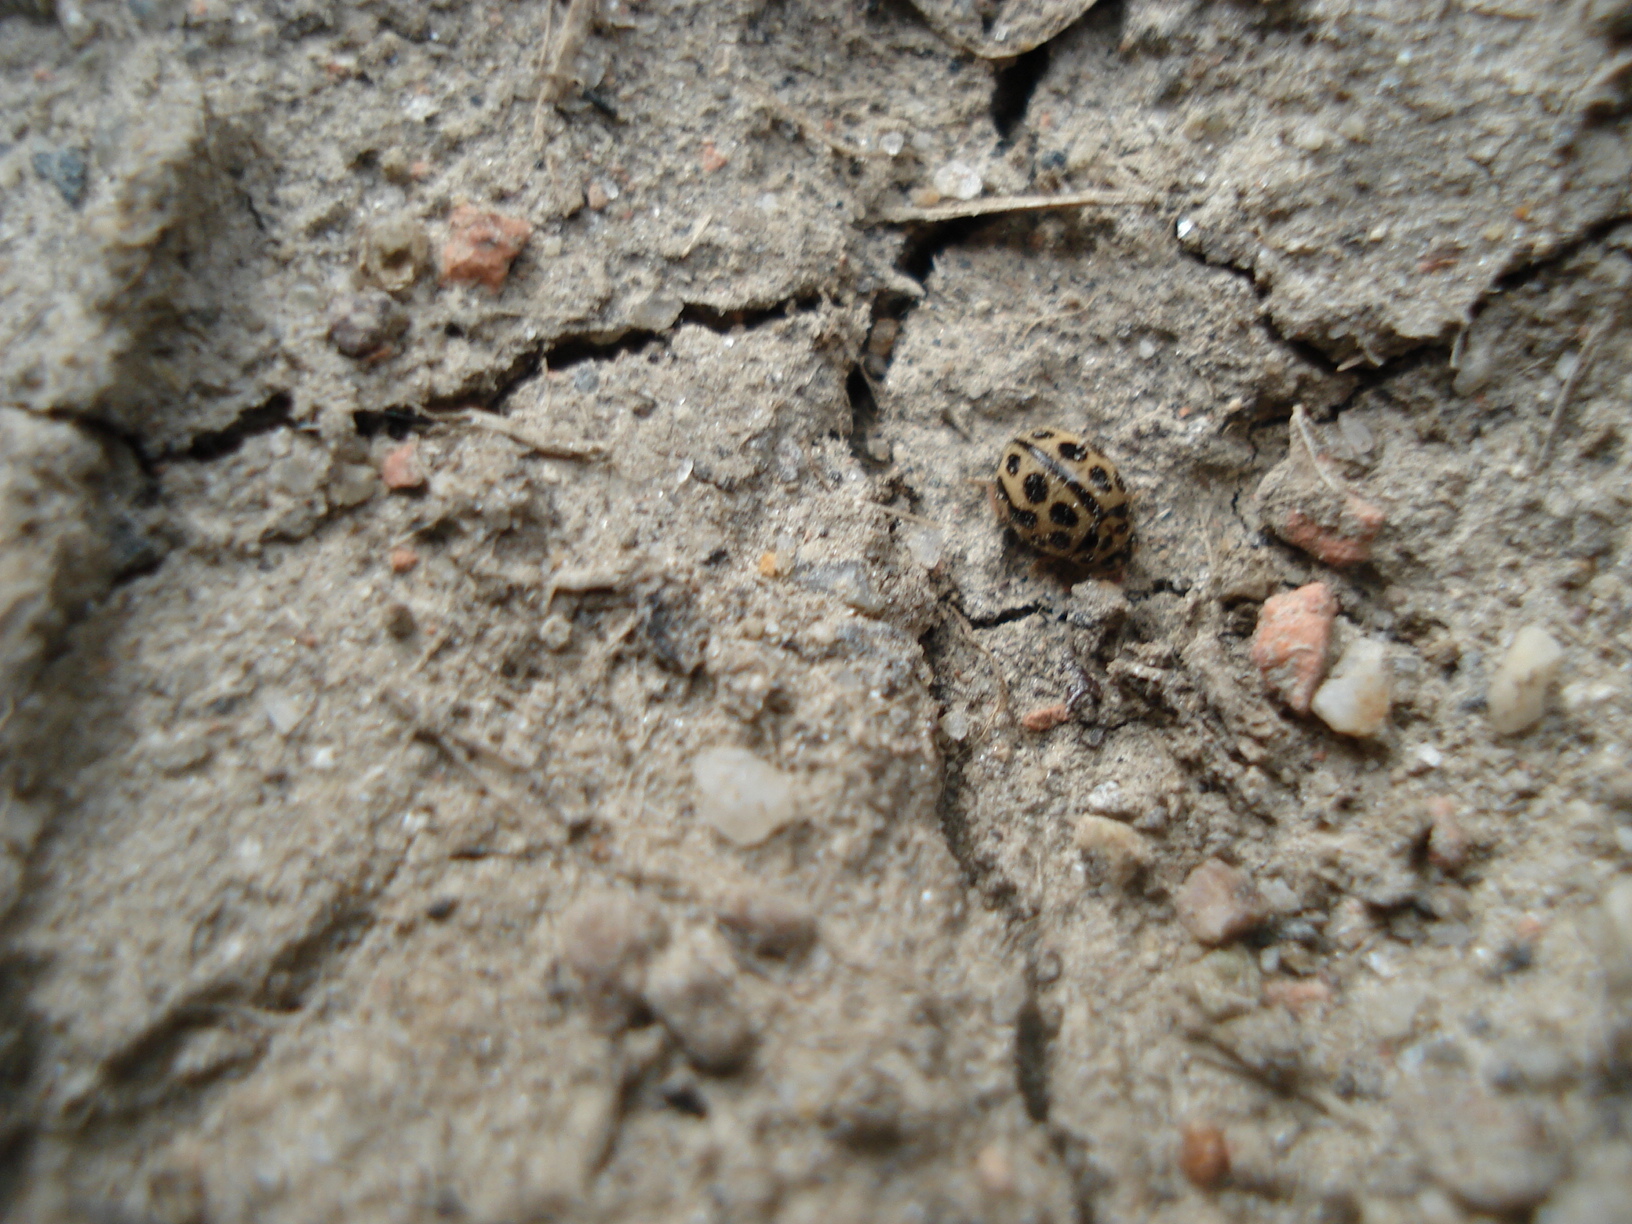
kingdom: Animalia
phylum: Arthropoda
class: Insecta
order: Coleoptera
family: Coccinellidae
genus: Tytthaspis
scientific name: Tytthaspis sedecimpunctata
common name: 16-spot ladybird
